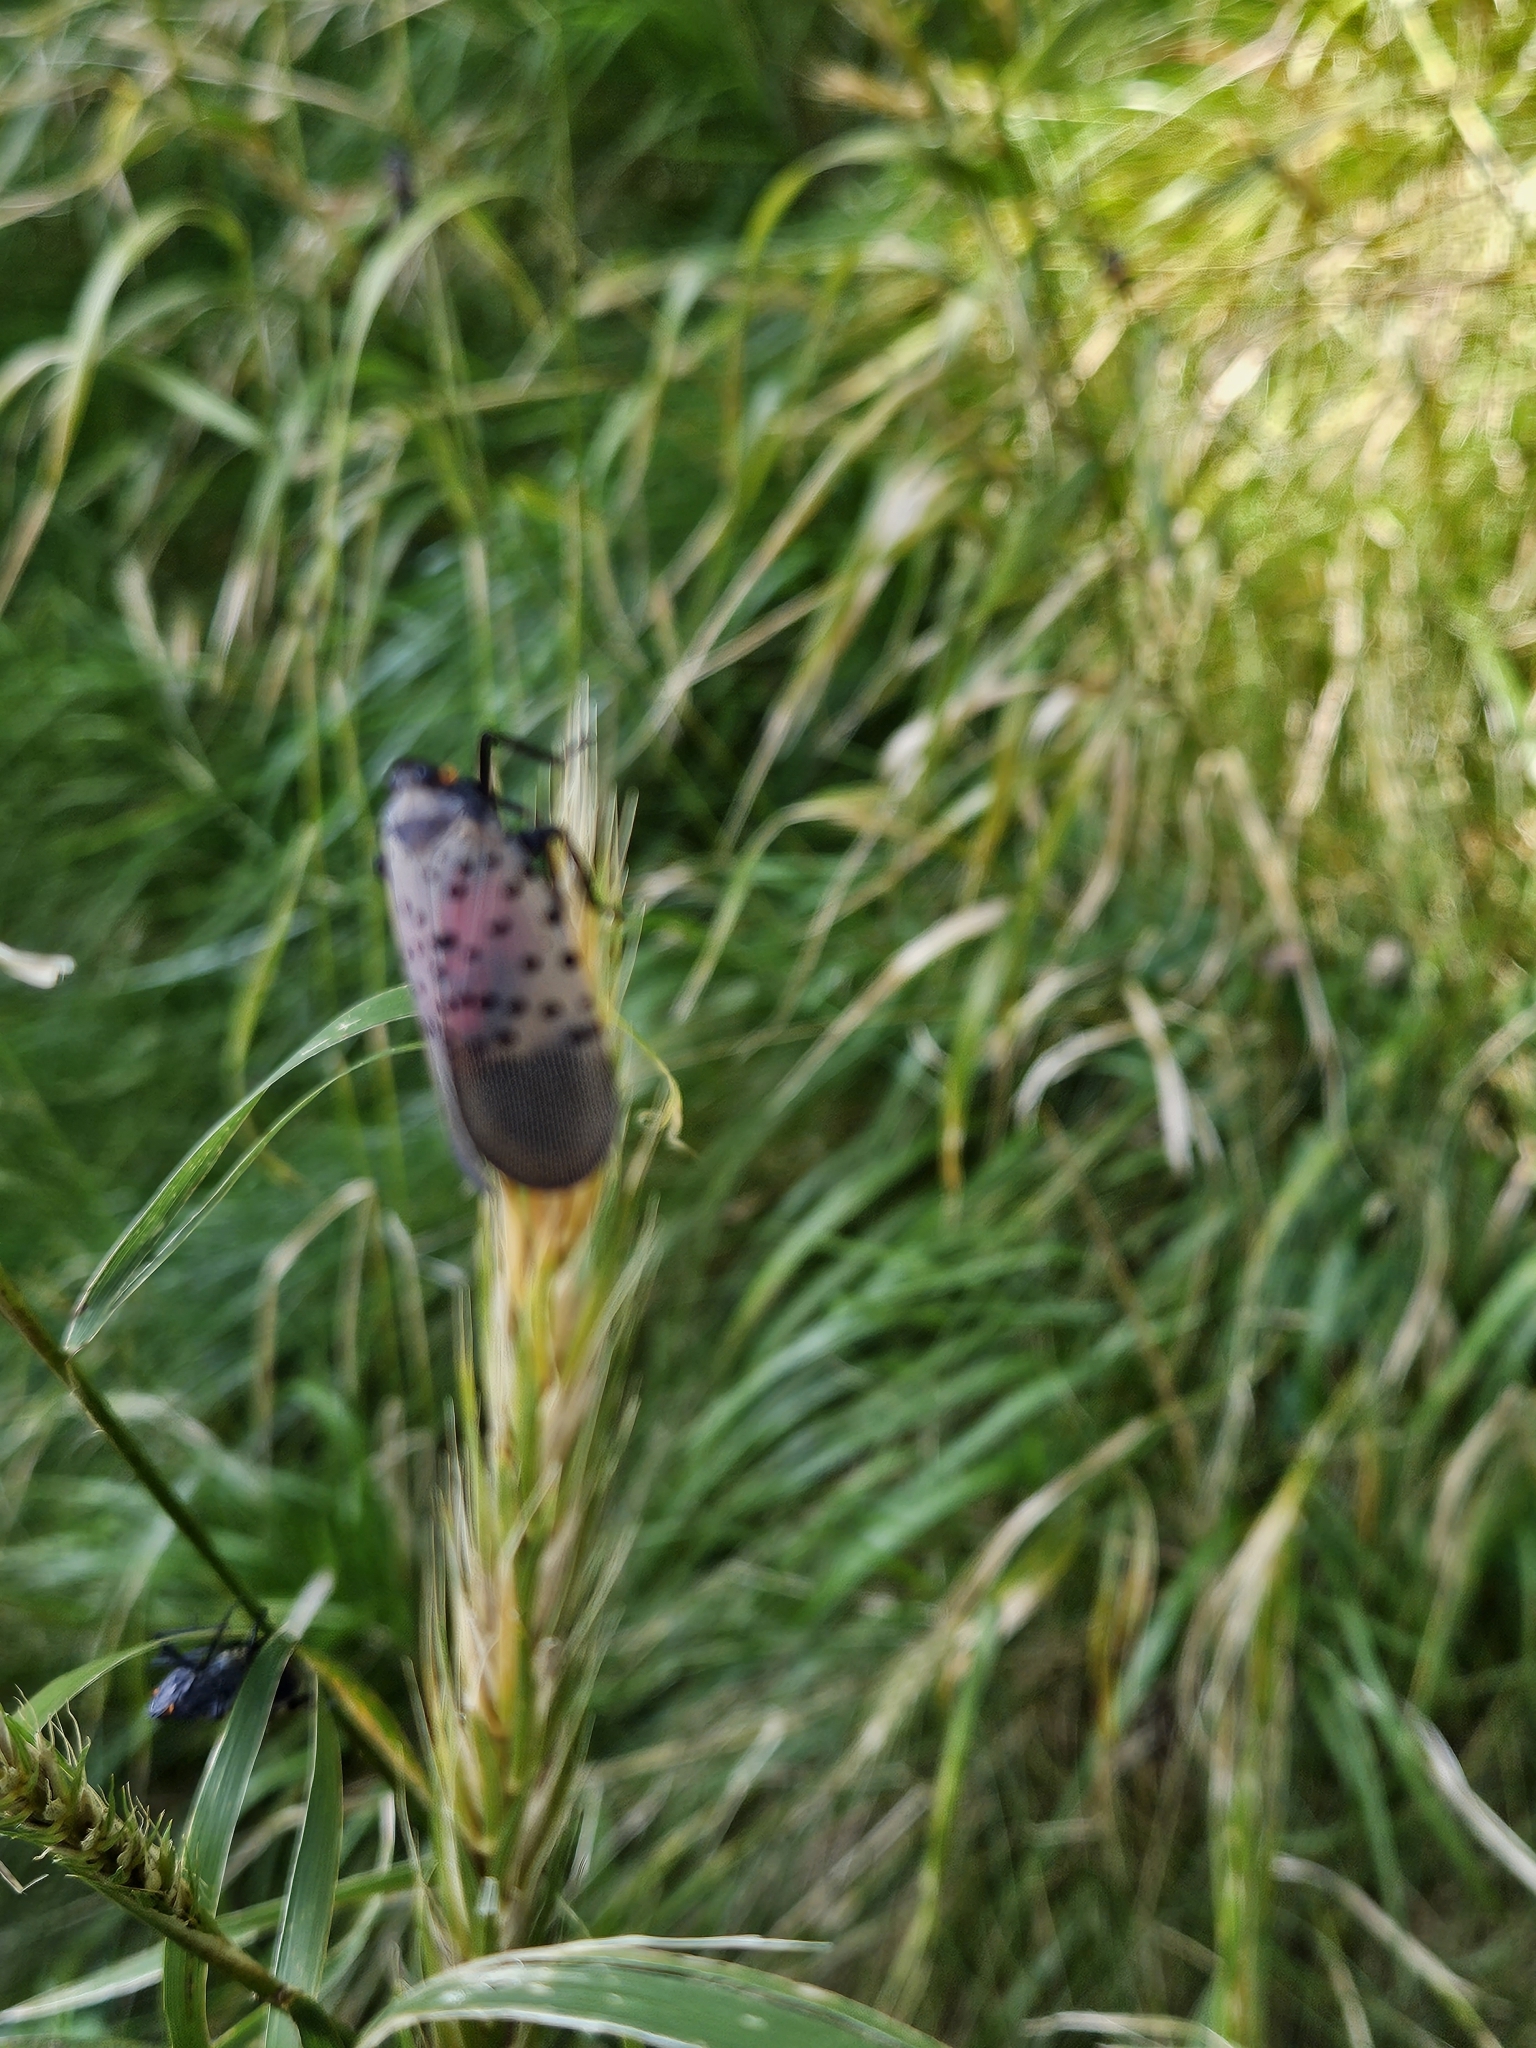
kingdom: Animalia
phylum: Arthropoda
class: Insecta
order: Hemiptera
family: Fulgoridae
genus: Lycorma
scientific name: Lycorma delicatula
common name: Spotted lanternfly
